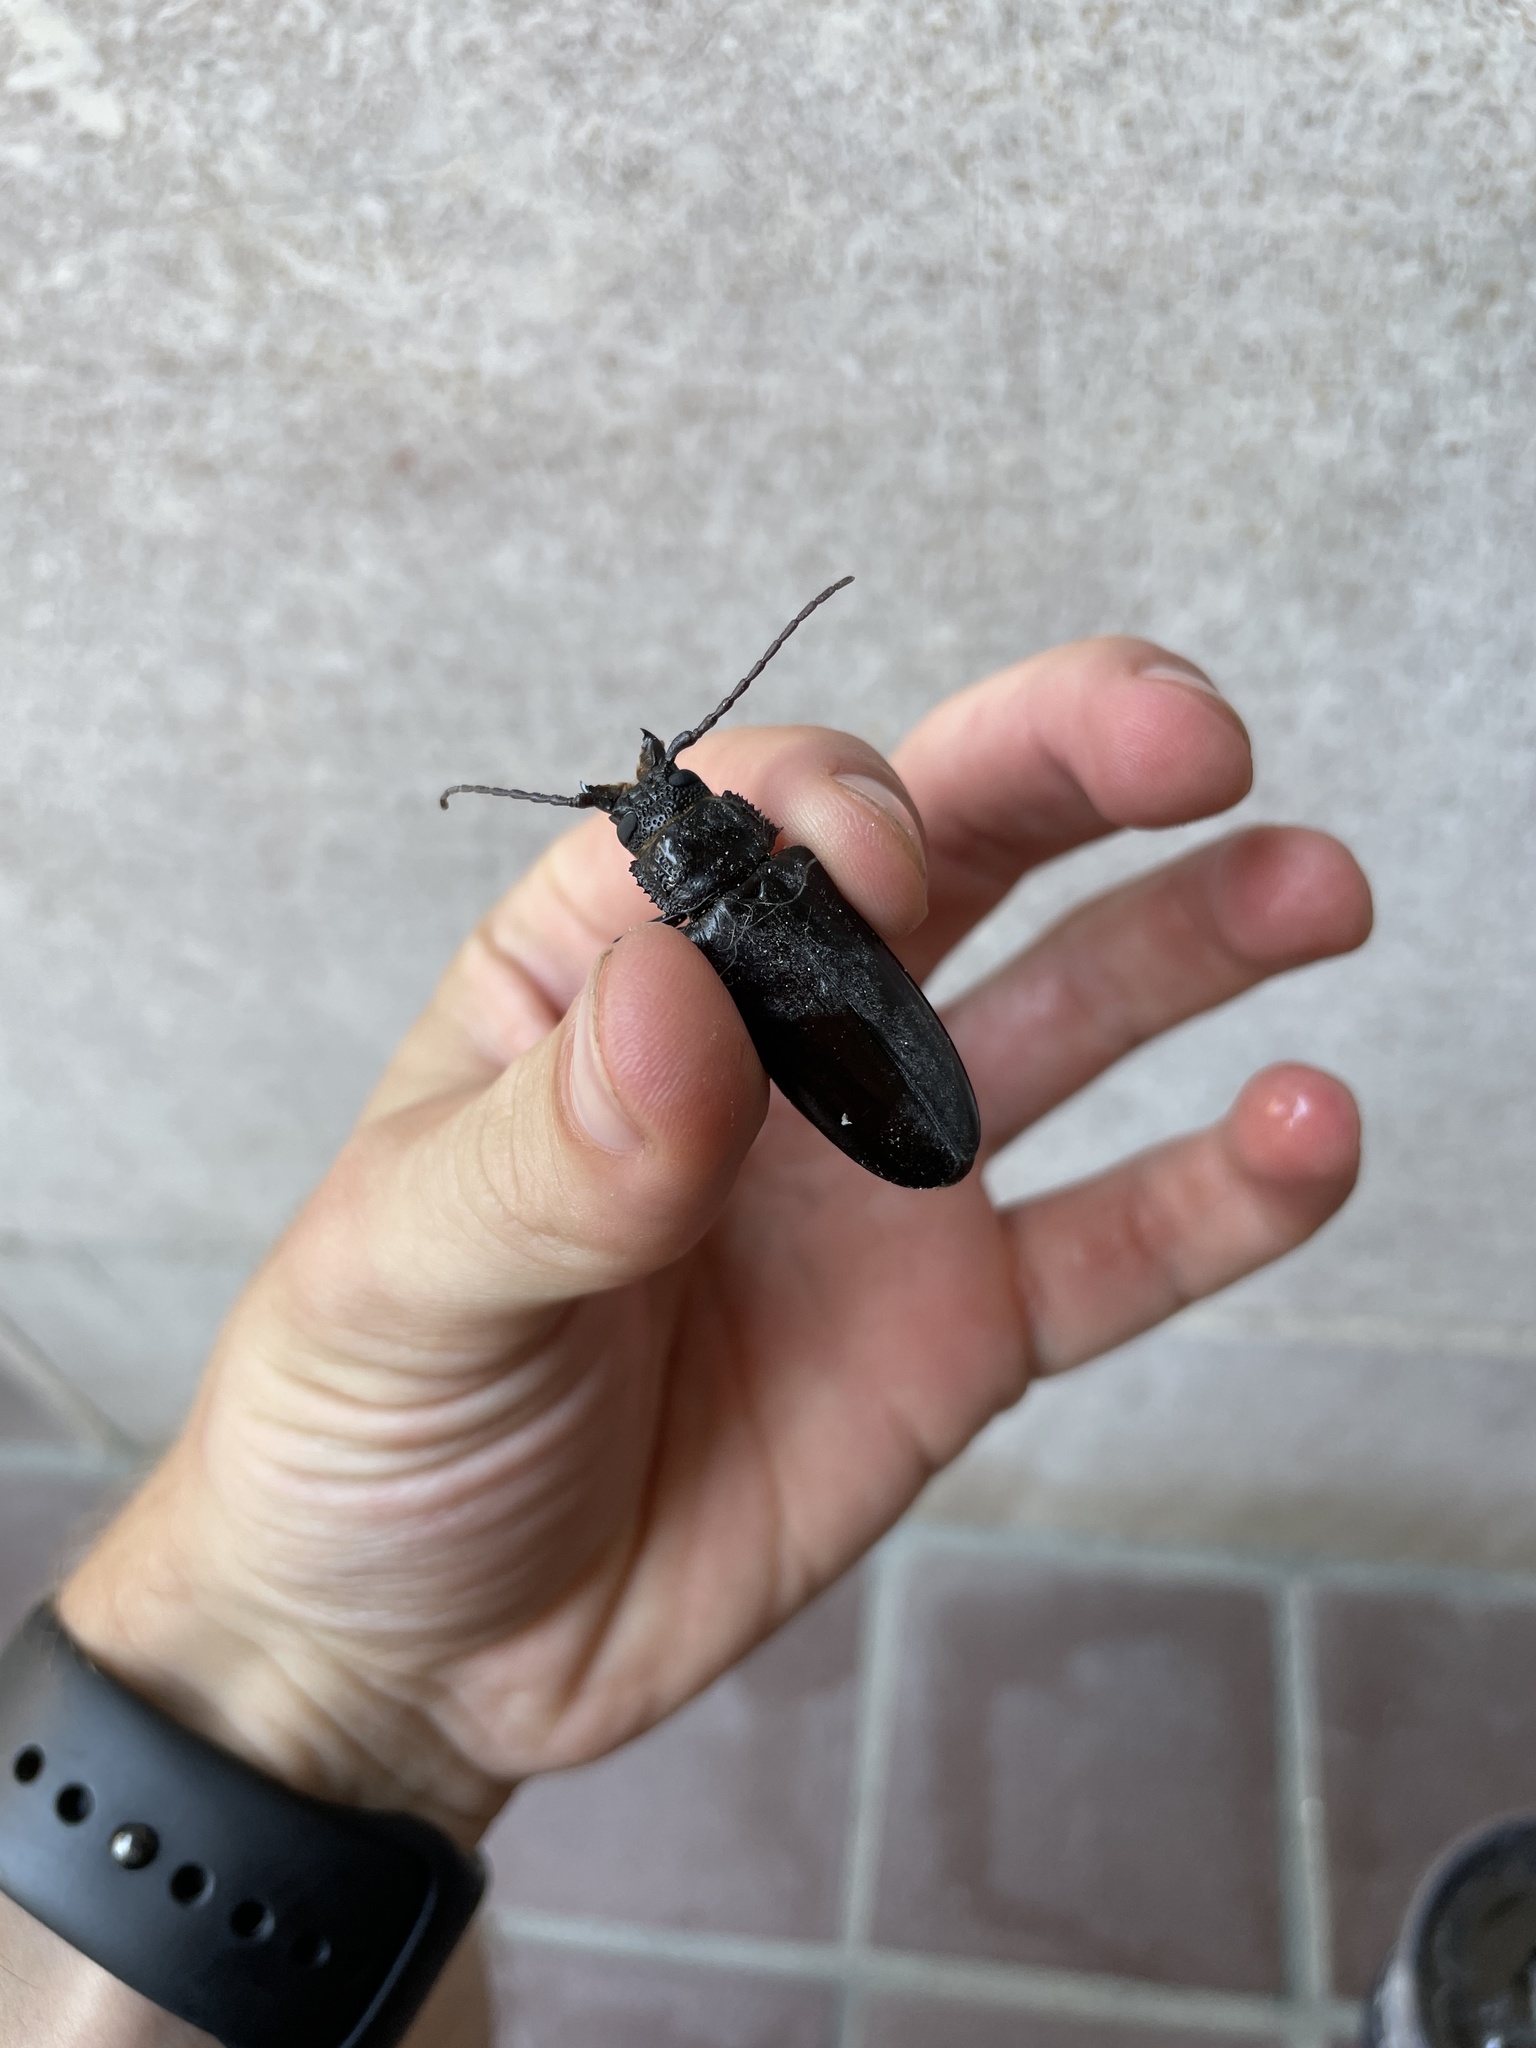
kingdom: Animalia
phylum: Arthropoda
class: Insecta
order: Coleoptera
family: Cerambycidae
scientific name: Cerambycidae
